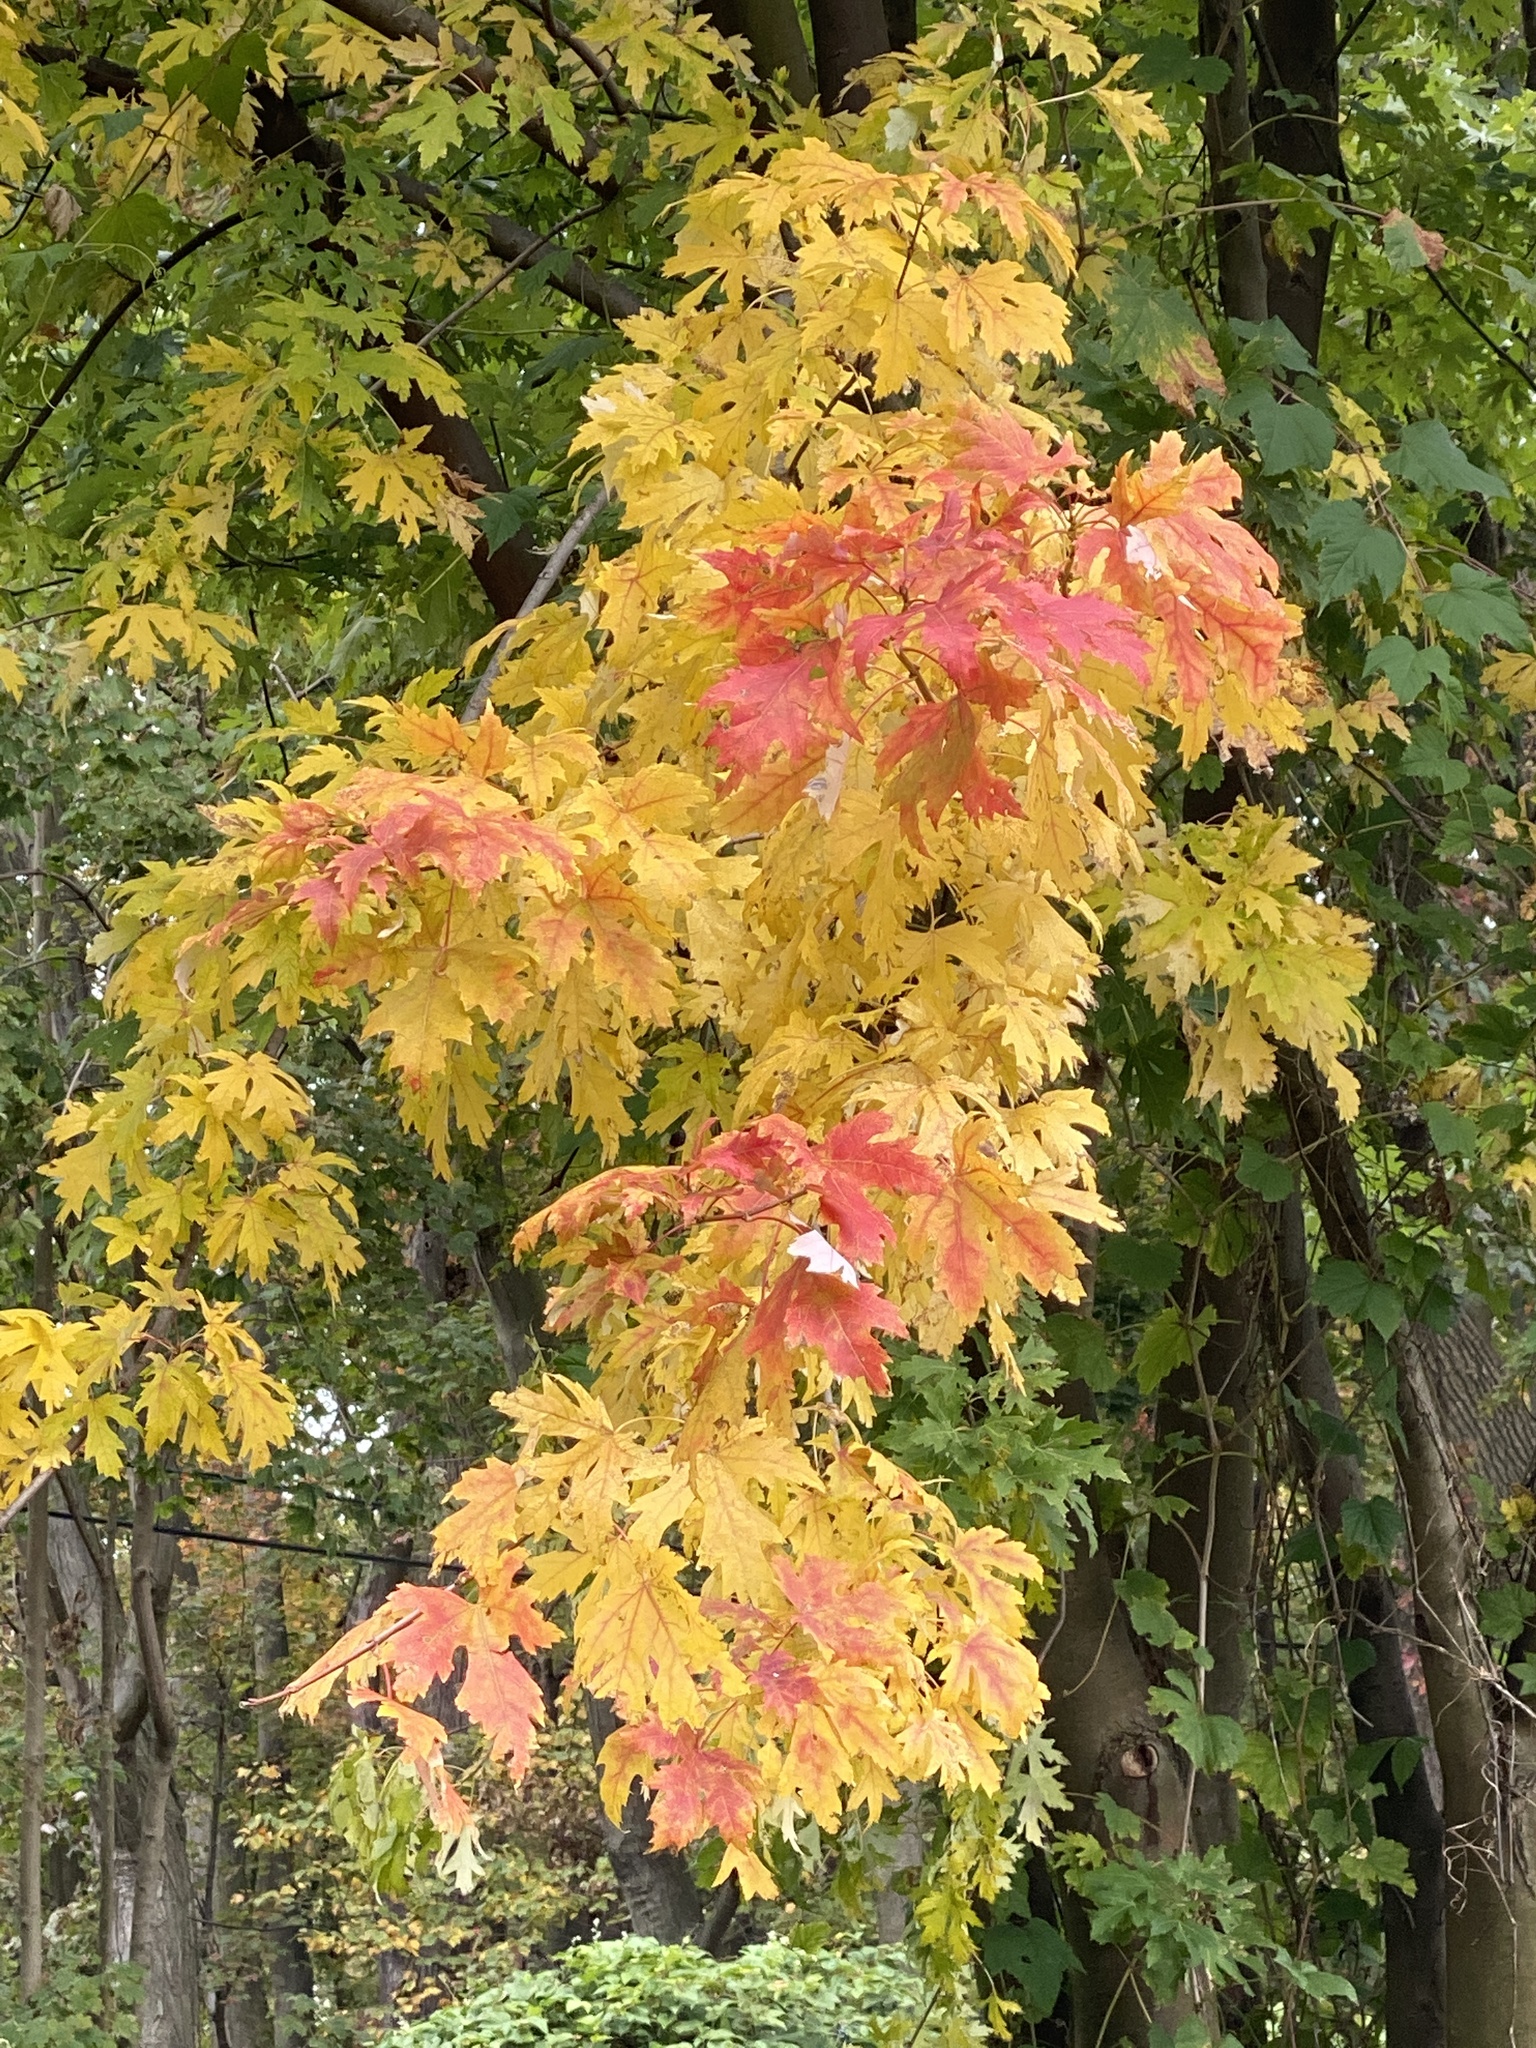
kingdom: Plantae
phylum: Tracheophyta
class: Magnoliopsida
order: Sapindales
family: Sapindaceae
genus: Acer
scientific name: Acer saccharinum
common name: Silver maple
